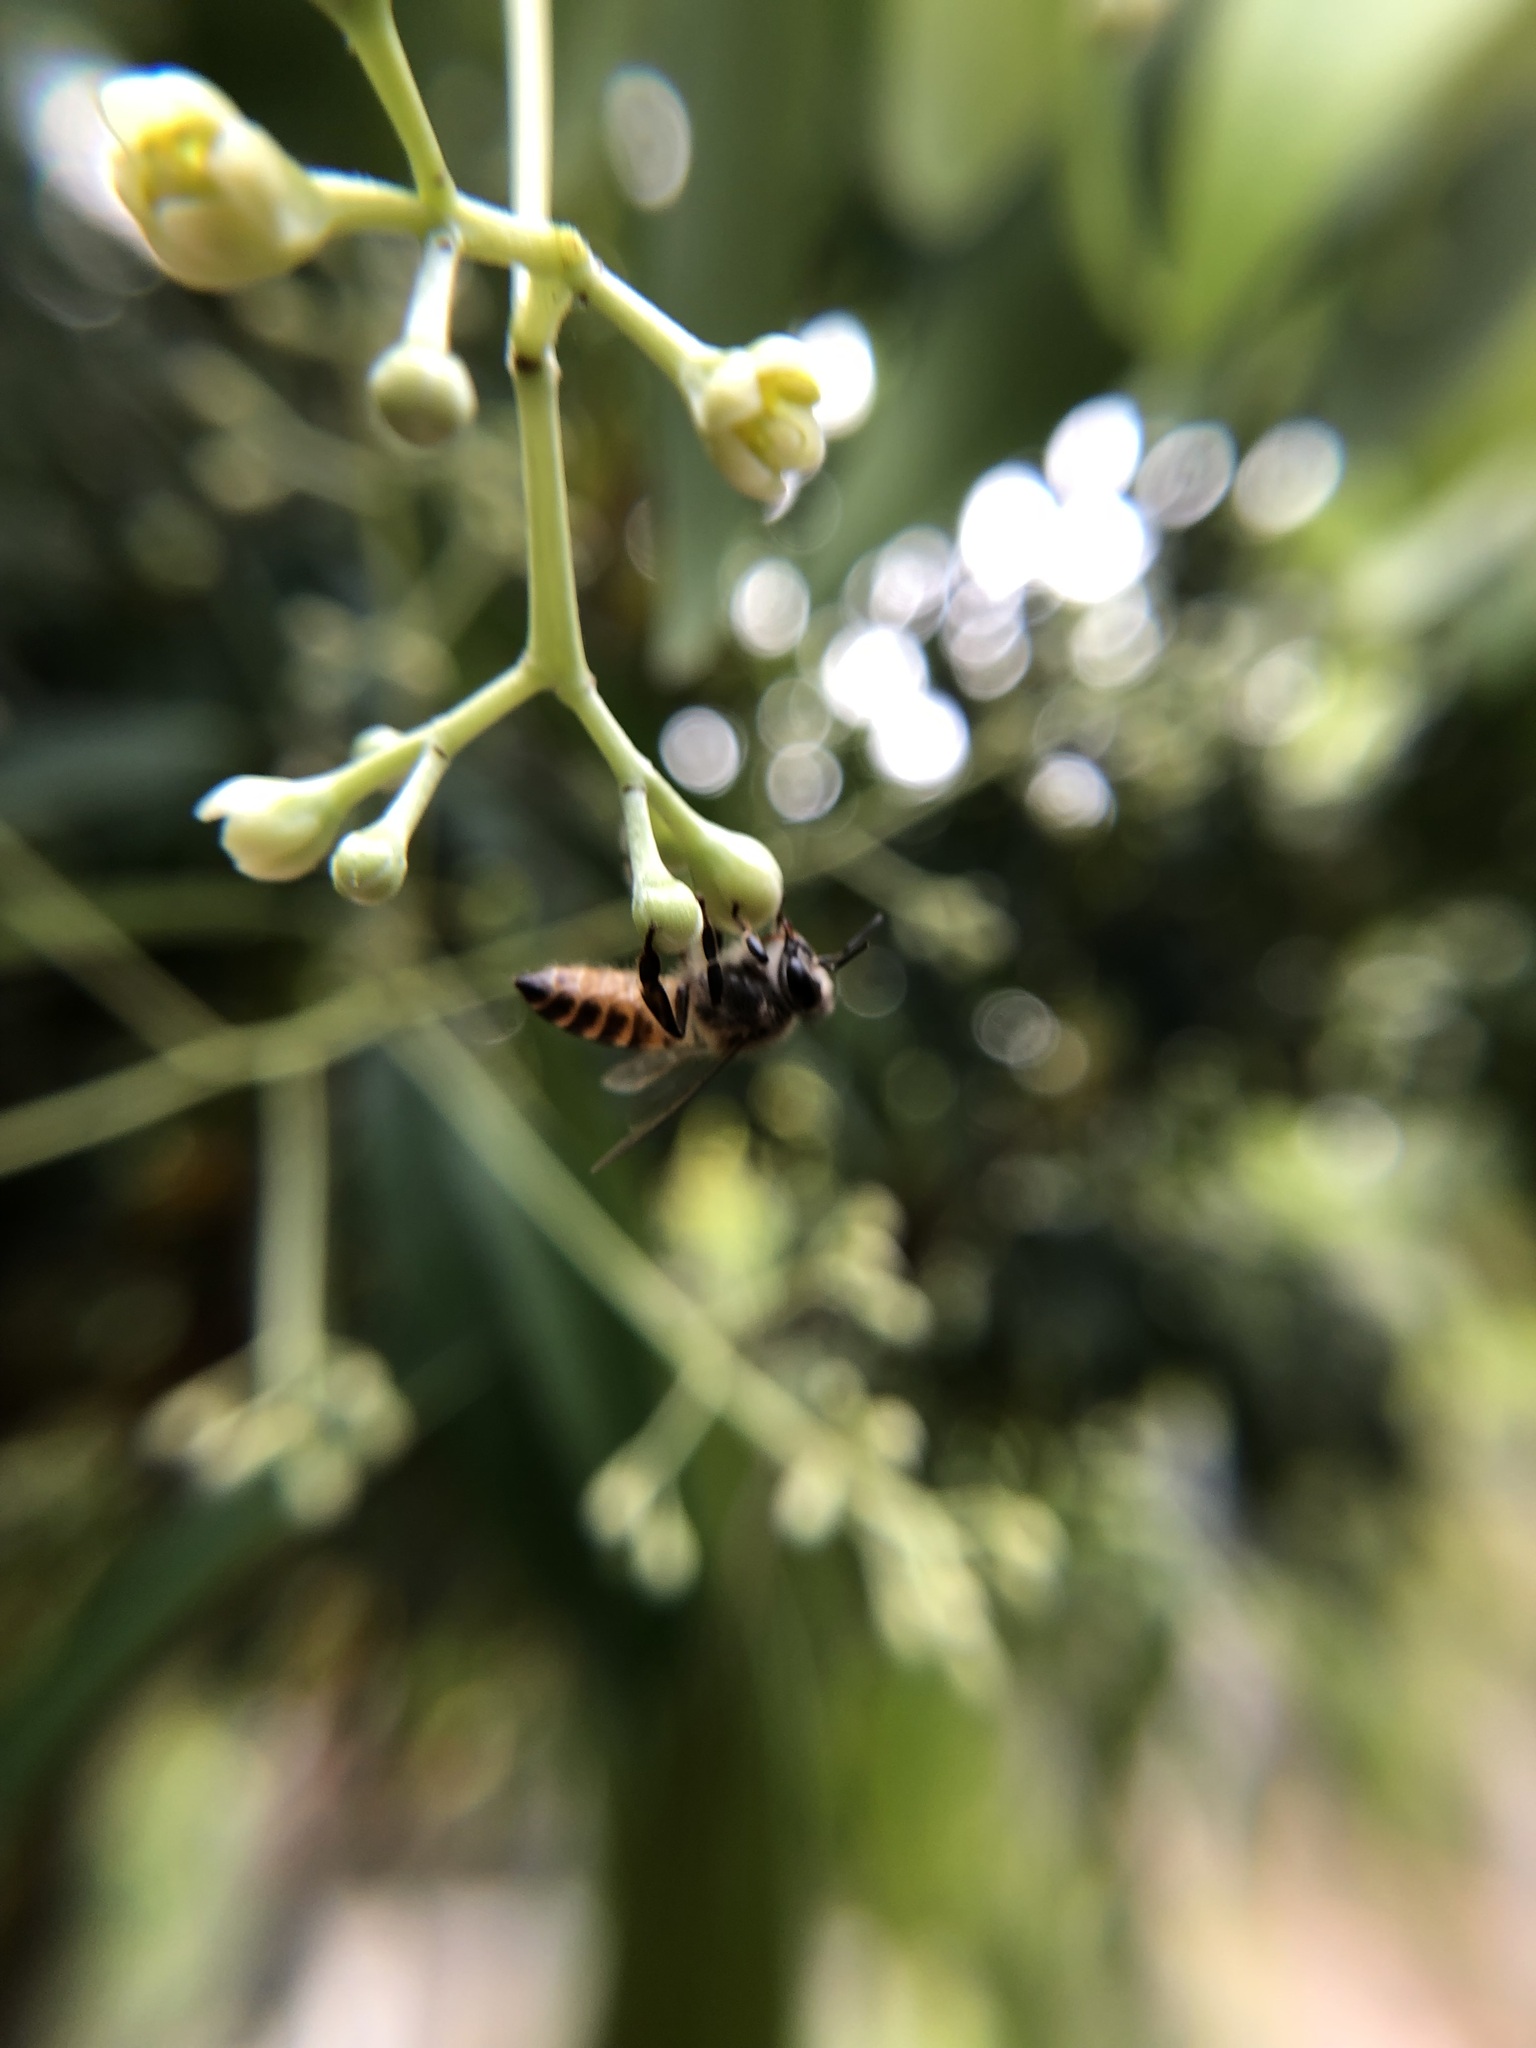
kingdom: Animalia
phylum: Arthropoda
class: Insecta
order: Hymenoptera
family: Apidae
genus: Apis
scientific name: Apis cerana
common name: Honey bee
